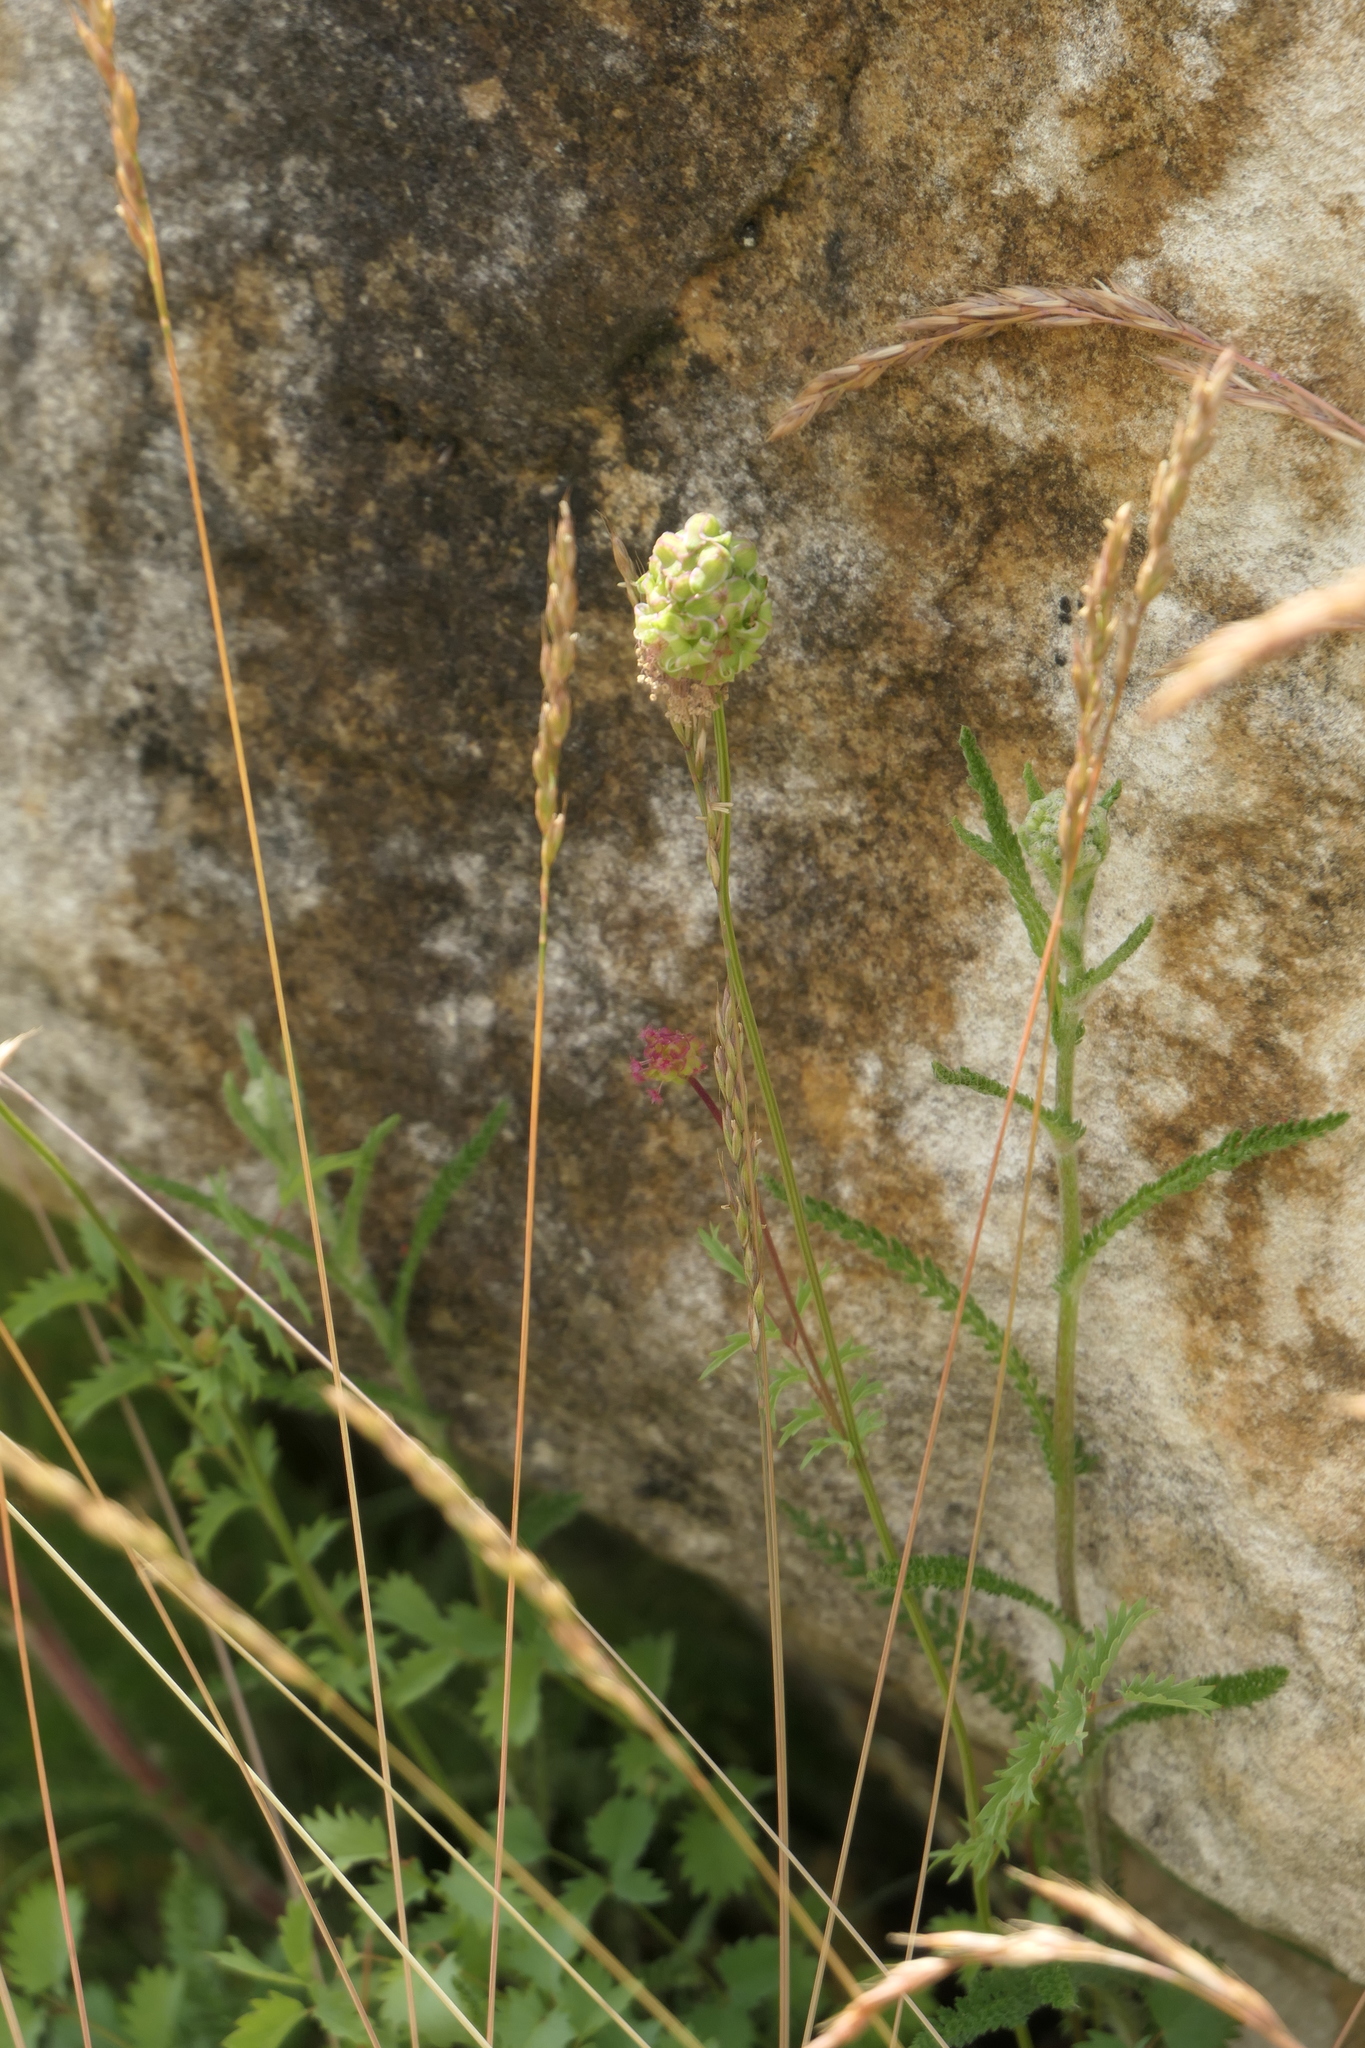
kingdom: Plantae
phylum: Tracheophyta
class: Magnoliopsida
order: Rosales
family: Rosaceae
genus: Poterium
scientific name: Poterium sanguisorba
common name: Salad burnet
